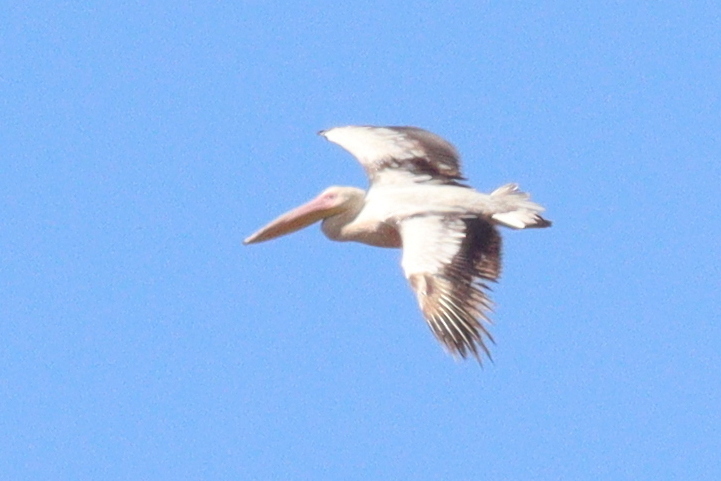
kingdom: Animalia
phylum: Chordata
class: Aves
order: Pelecaniformes
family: Pelecanidae
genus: Pelecanus
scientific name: Pelecanus onocrotalus
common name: Great white pelican
